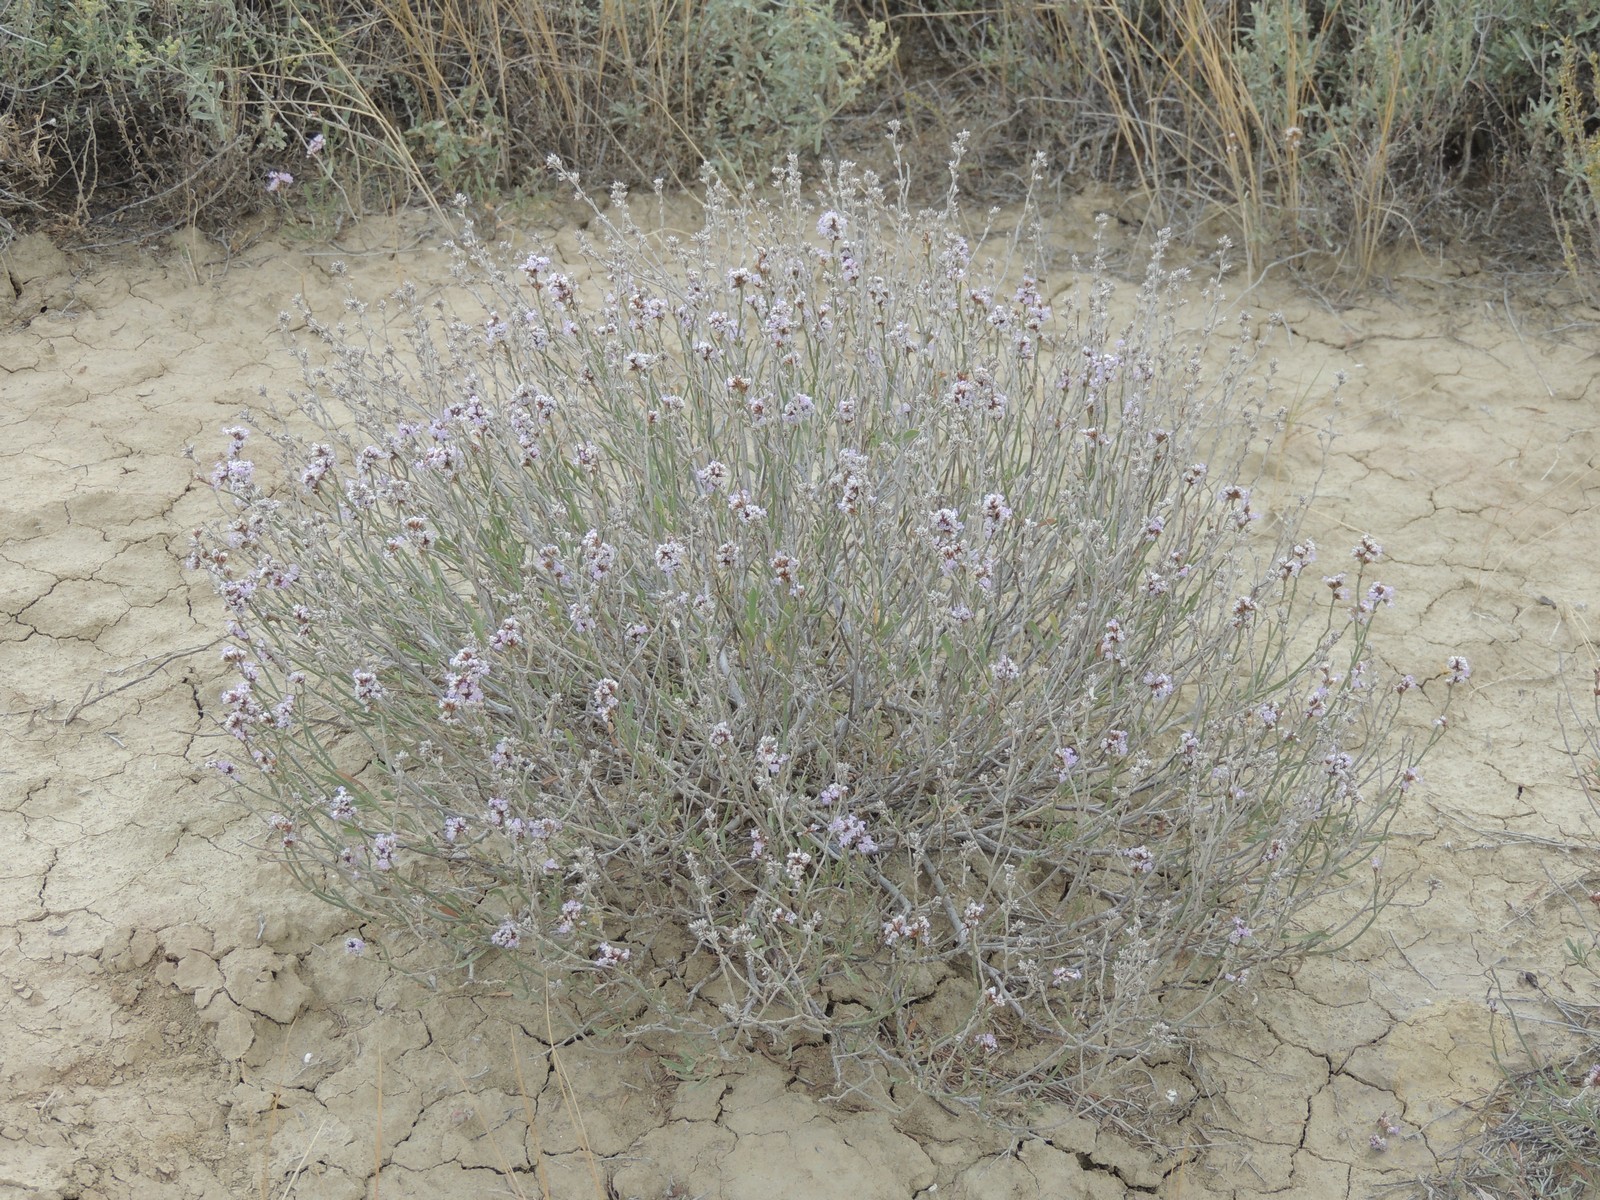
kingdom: Plantae
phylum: Tracheophyta
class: Magnoliopsida
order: Caryophyllales
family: Plumbaginaceae
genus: Limonium
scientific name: Limonium suffruticosum
